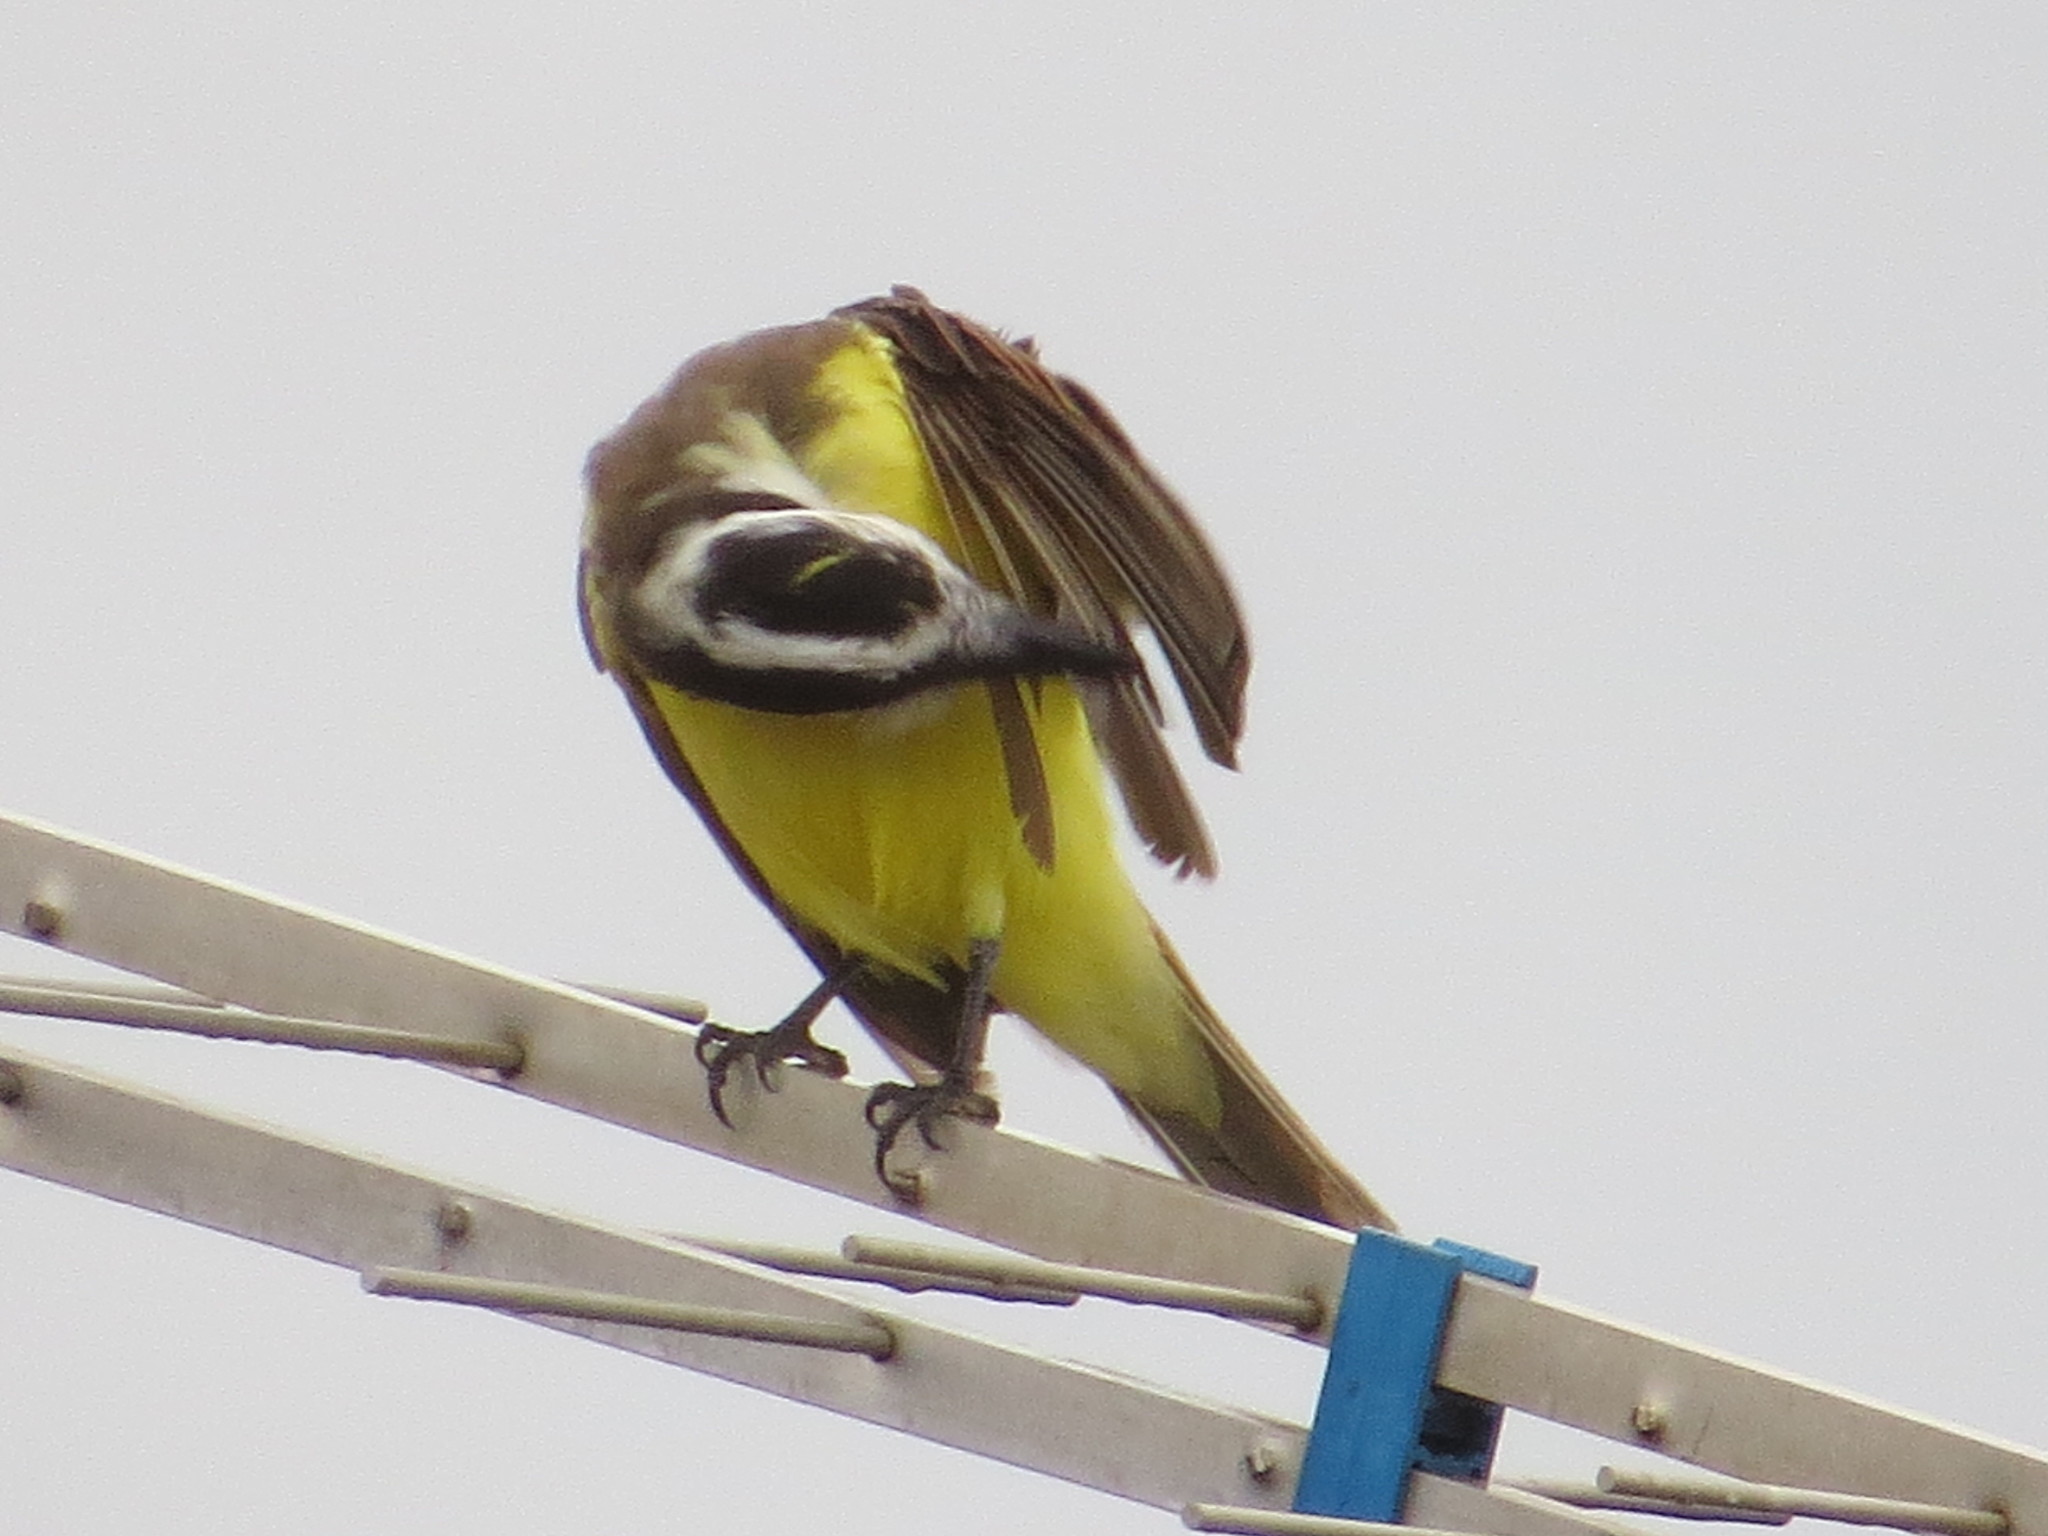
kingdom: Animalia
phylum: Chordata
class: Aves
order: Passeriformes
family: Tyrannidae
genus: Pitangus
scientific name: Pitangus sulphuratus
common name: Great kiskadee
